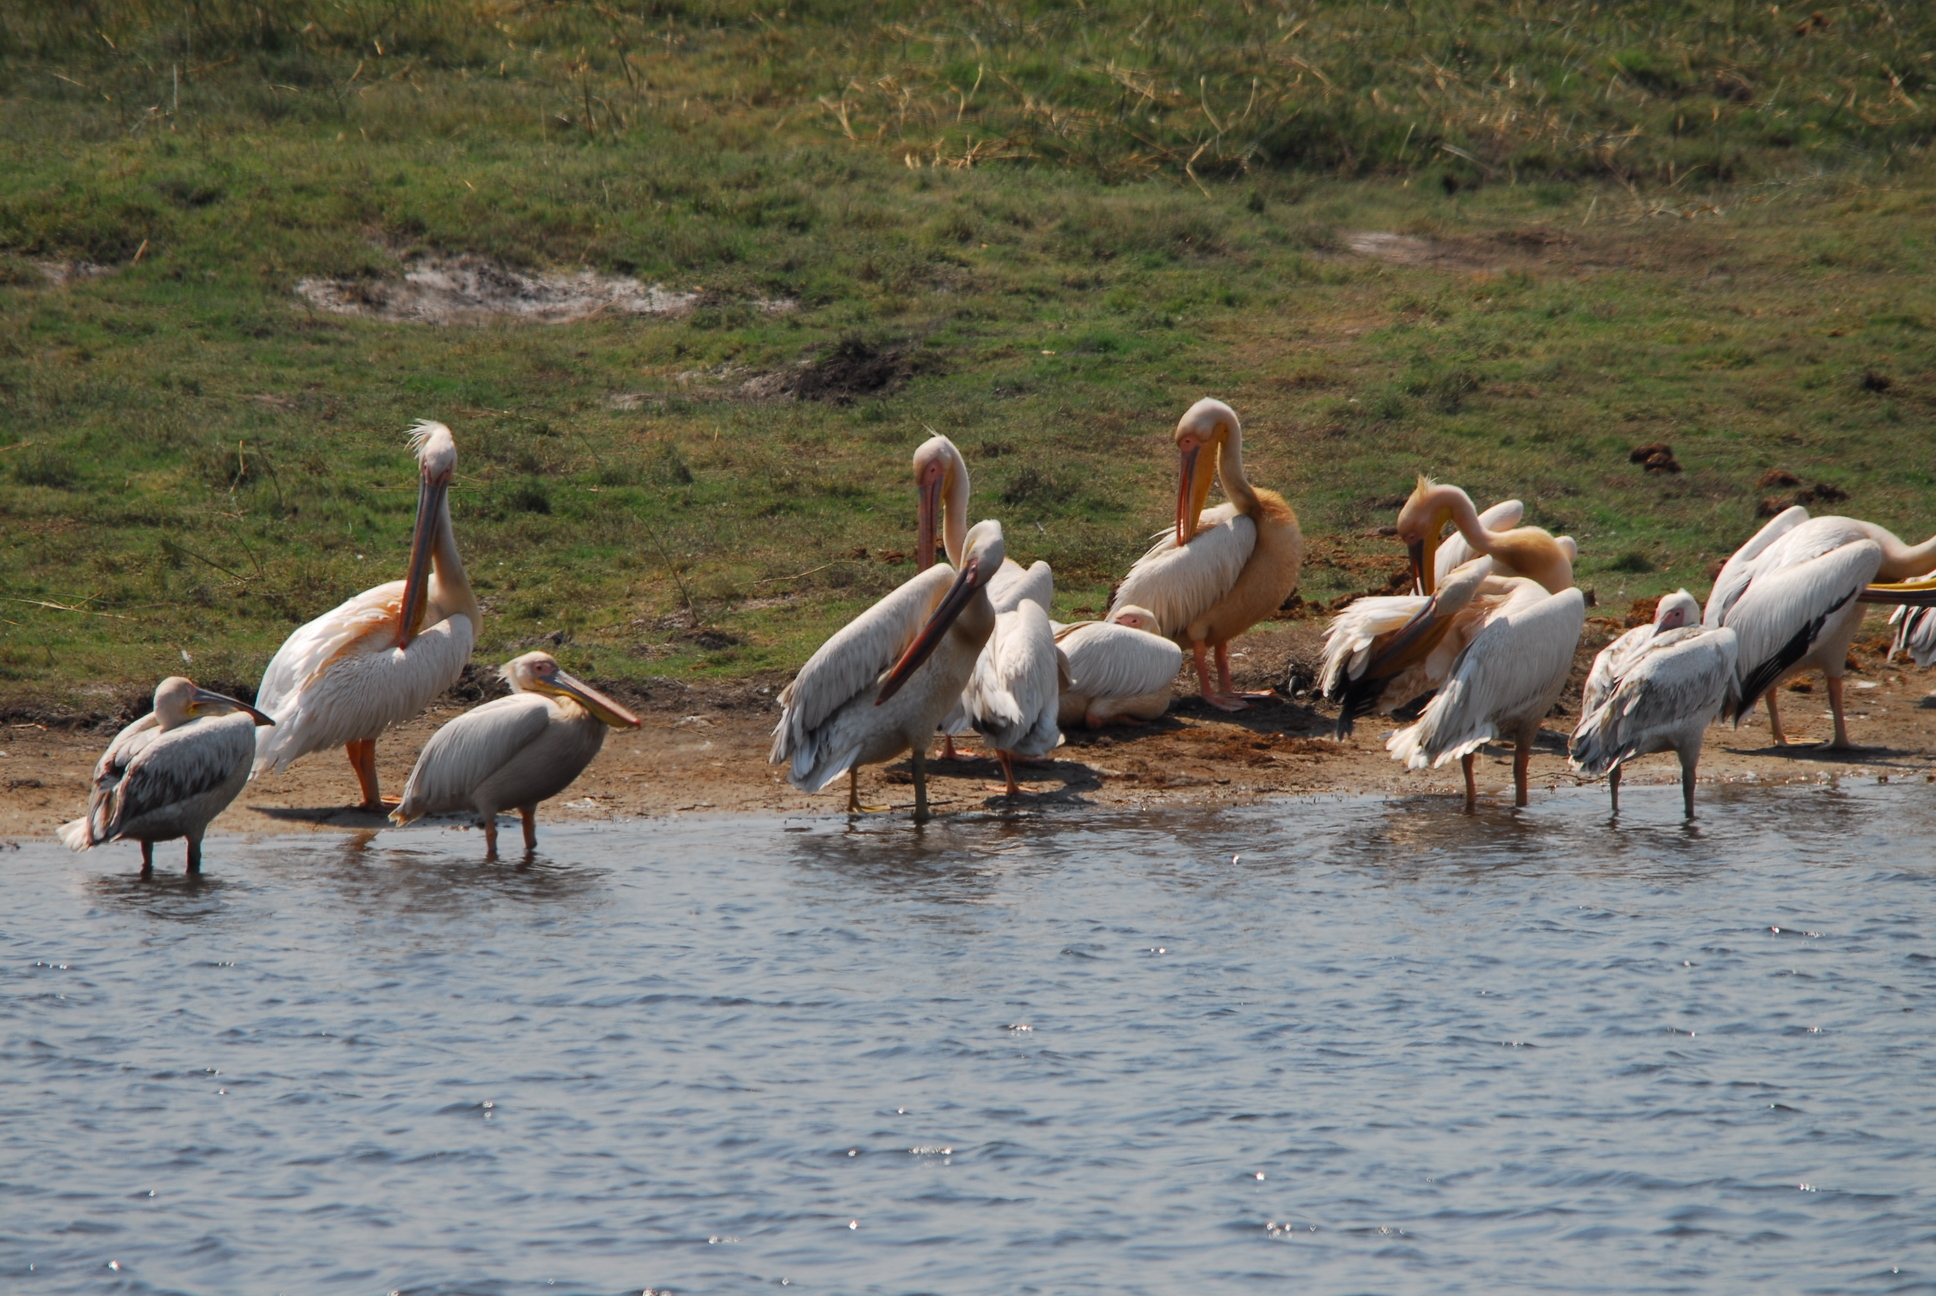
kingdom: Animalia
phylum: Chordata
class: Aves
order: Pelecaniformes
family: Pelecanidae
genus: Pelecanus
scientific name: Pelecanus onocrotalus
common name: Great white pelican
